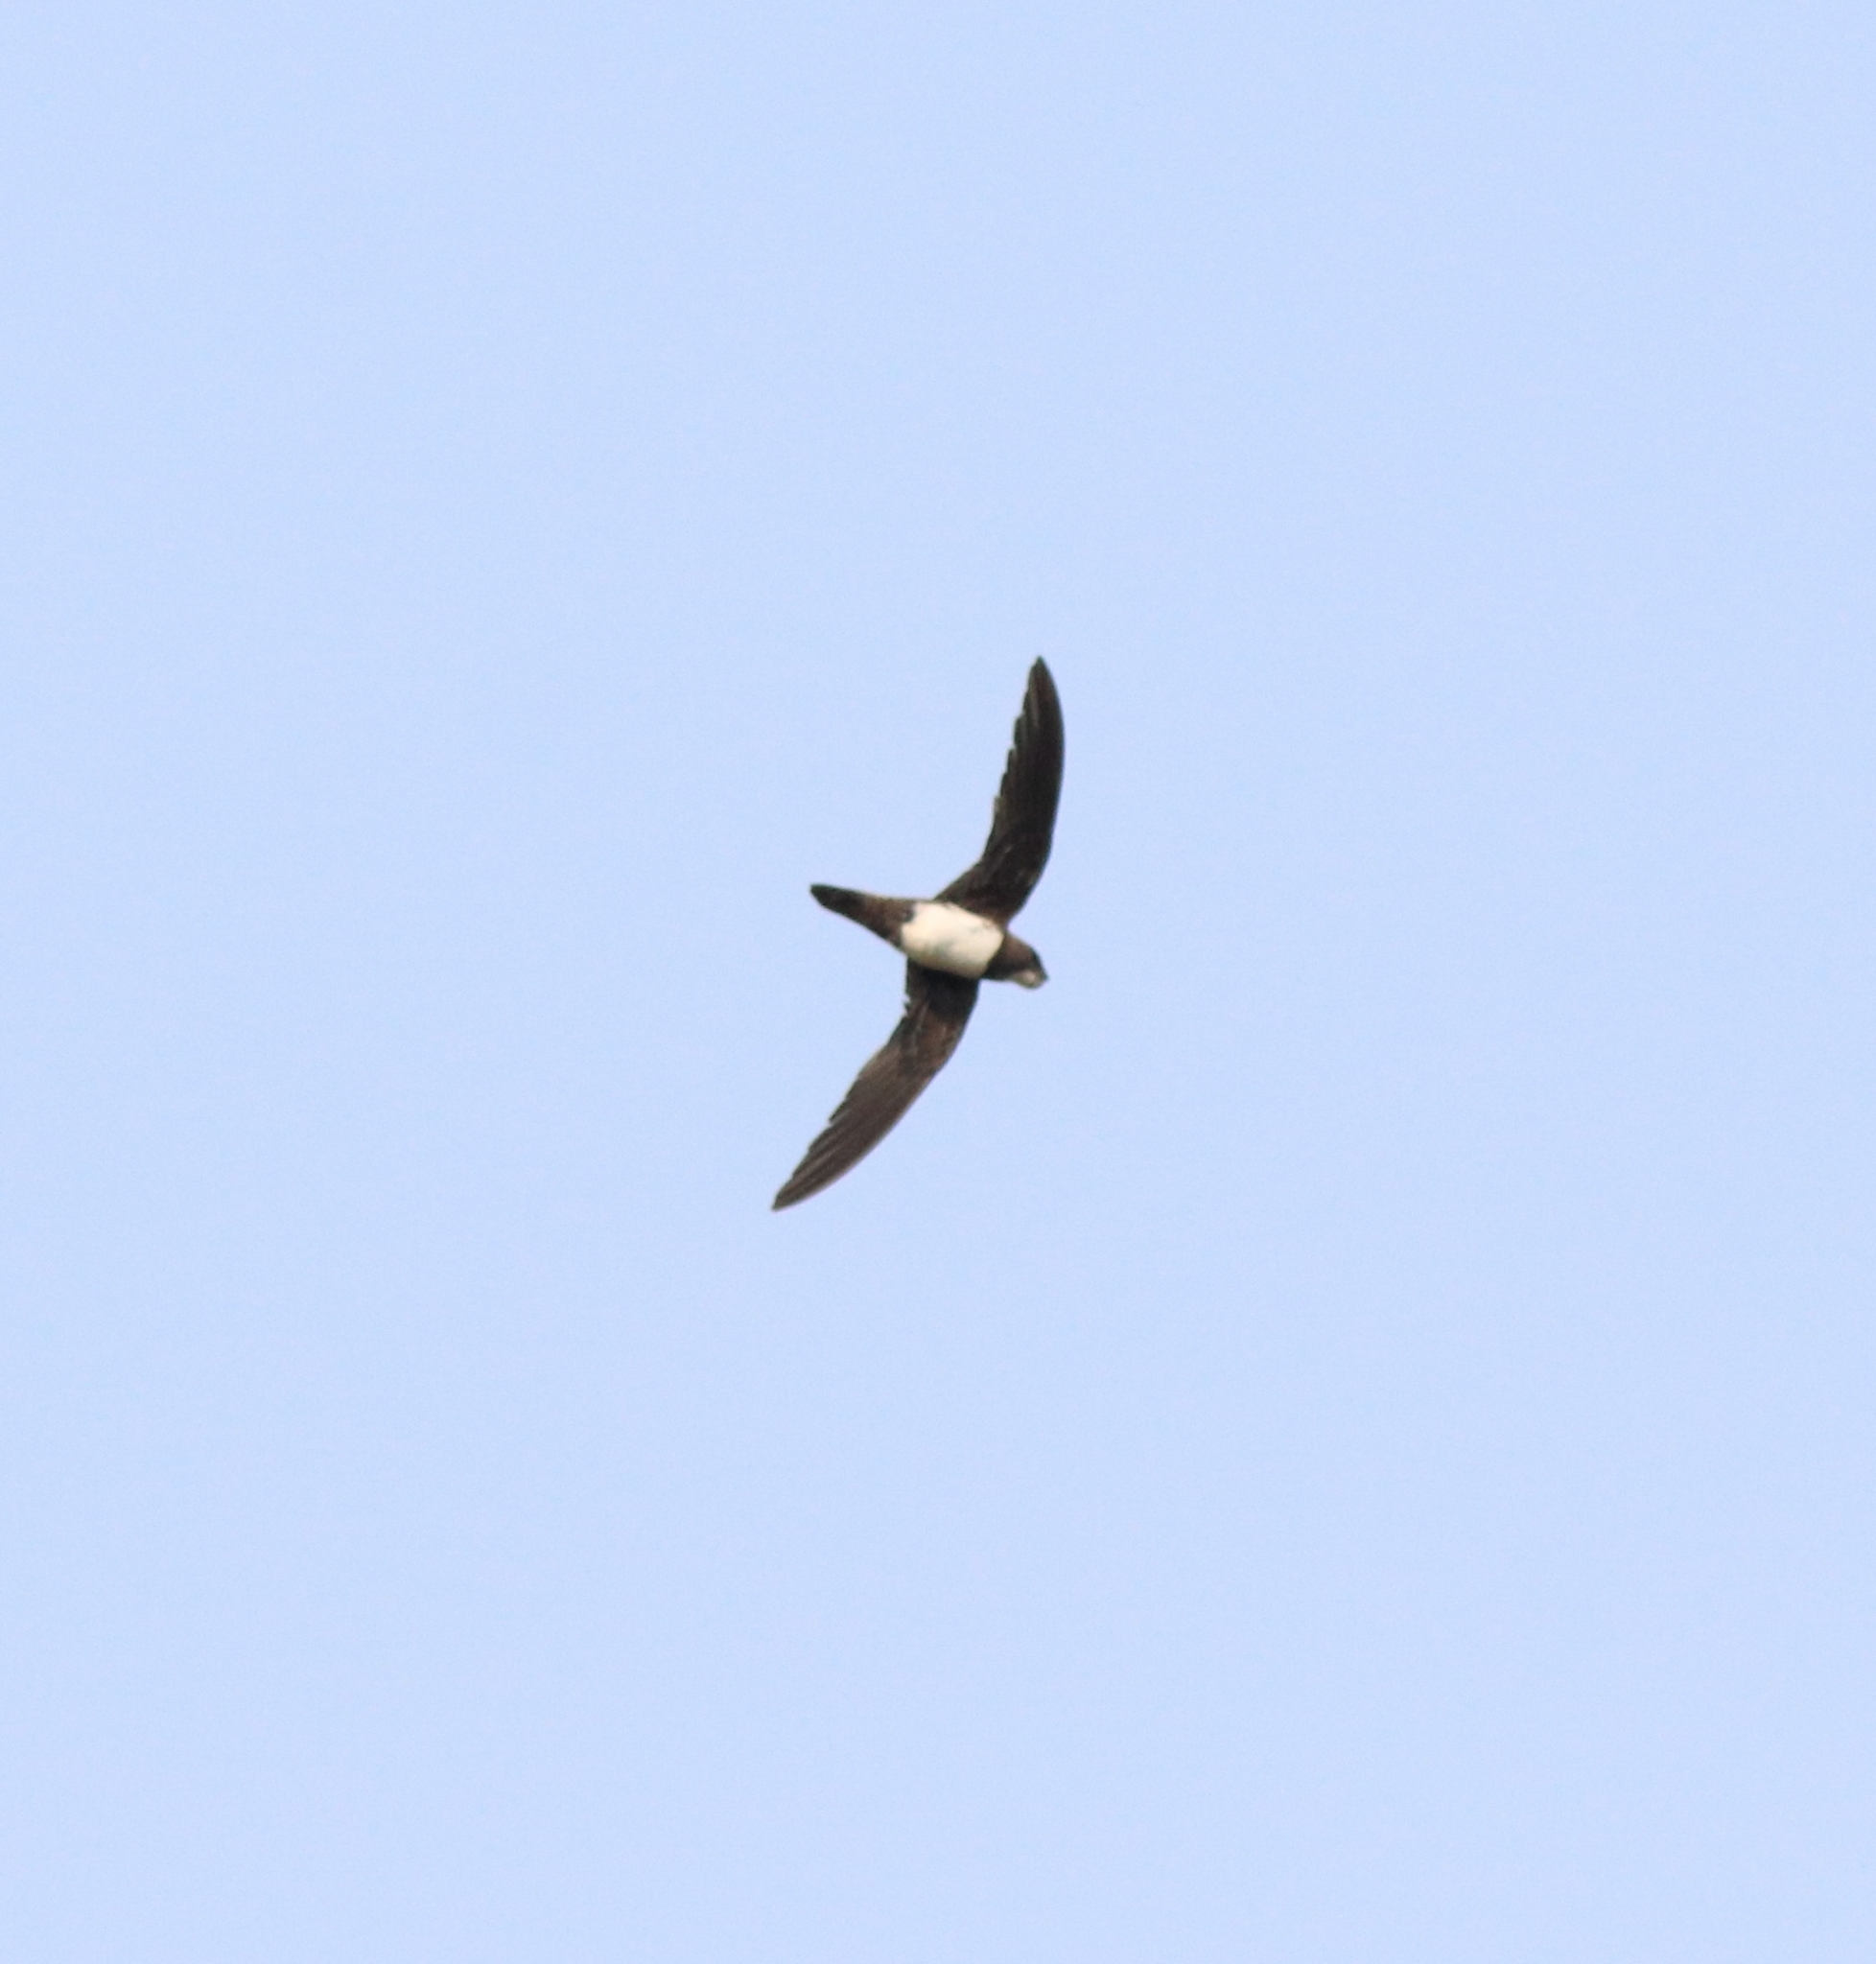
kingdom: Animalia
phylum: Chordata
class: Aves
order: Apodiformes
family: Apodidae
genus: Tachymarptis
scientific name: Tachymarptis melba
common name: Alpine swift
